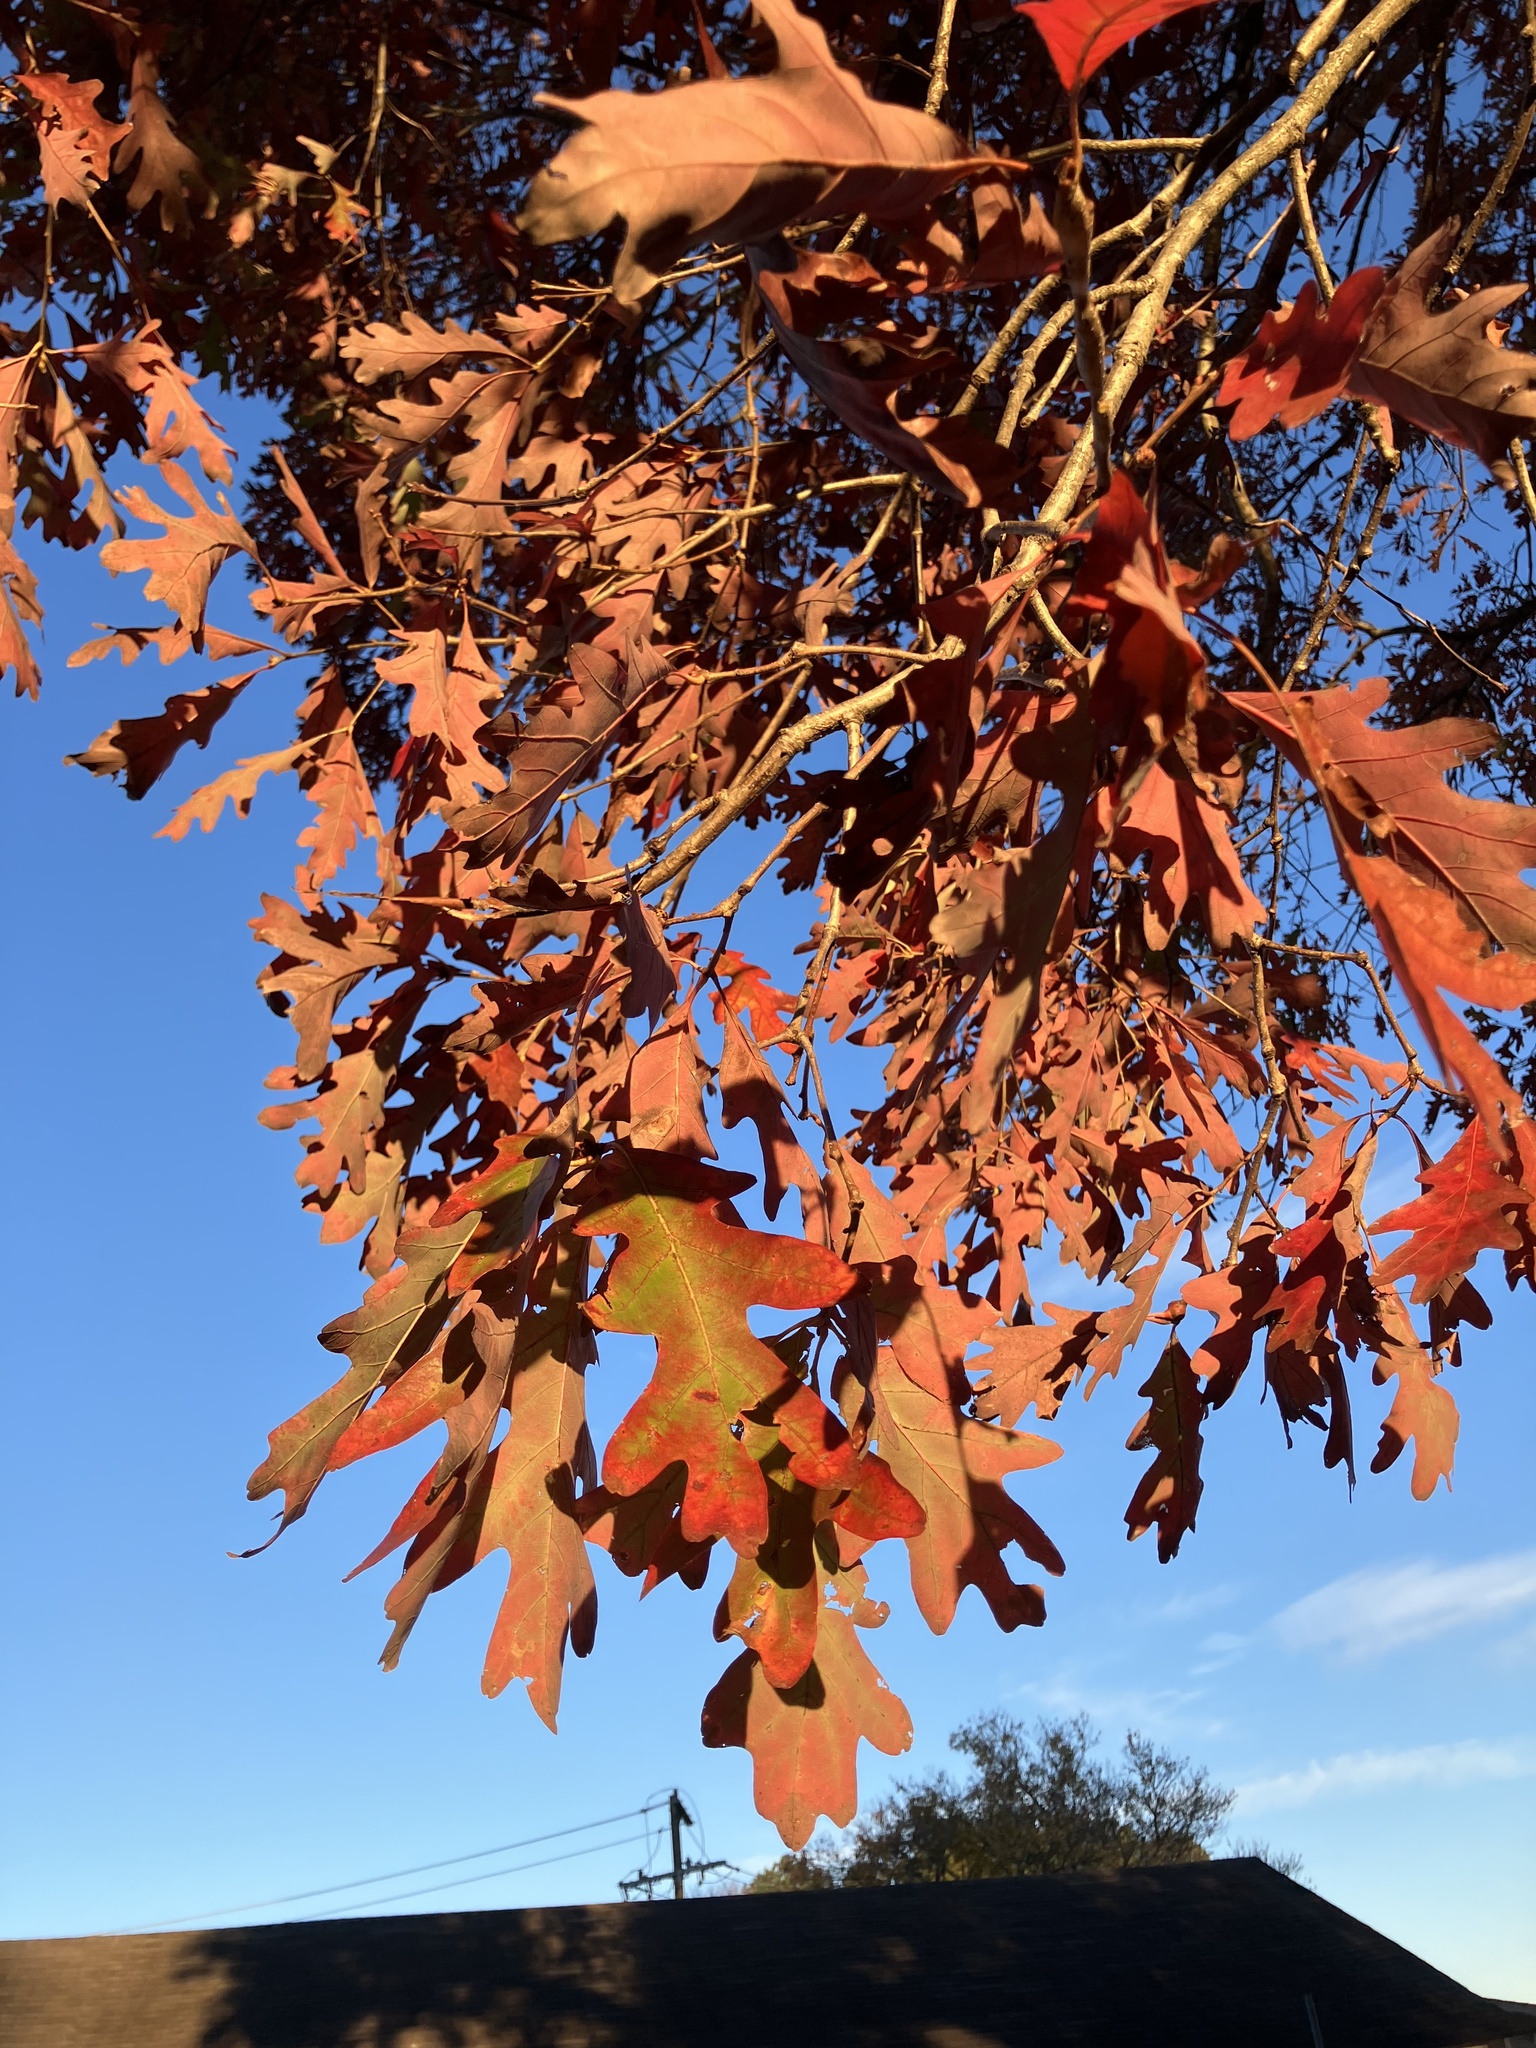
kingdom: Plantae
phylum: Tracheophyta
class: Magnoliopsida
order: Fagales
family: Fagaceae
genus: Quercus
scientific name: Quercus alba
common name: White oak
